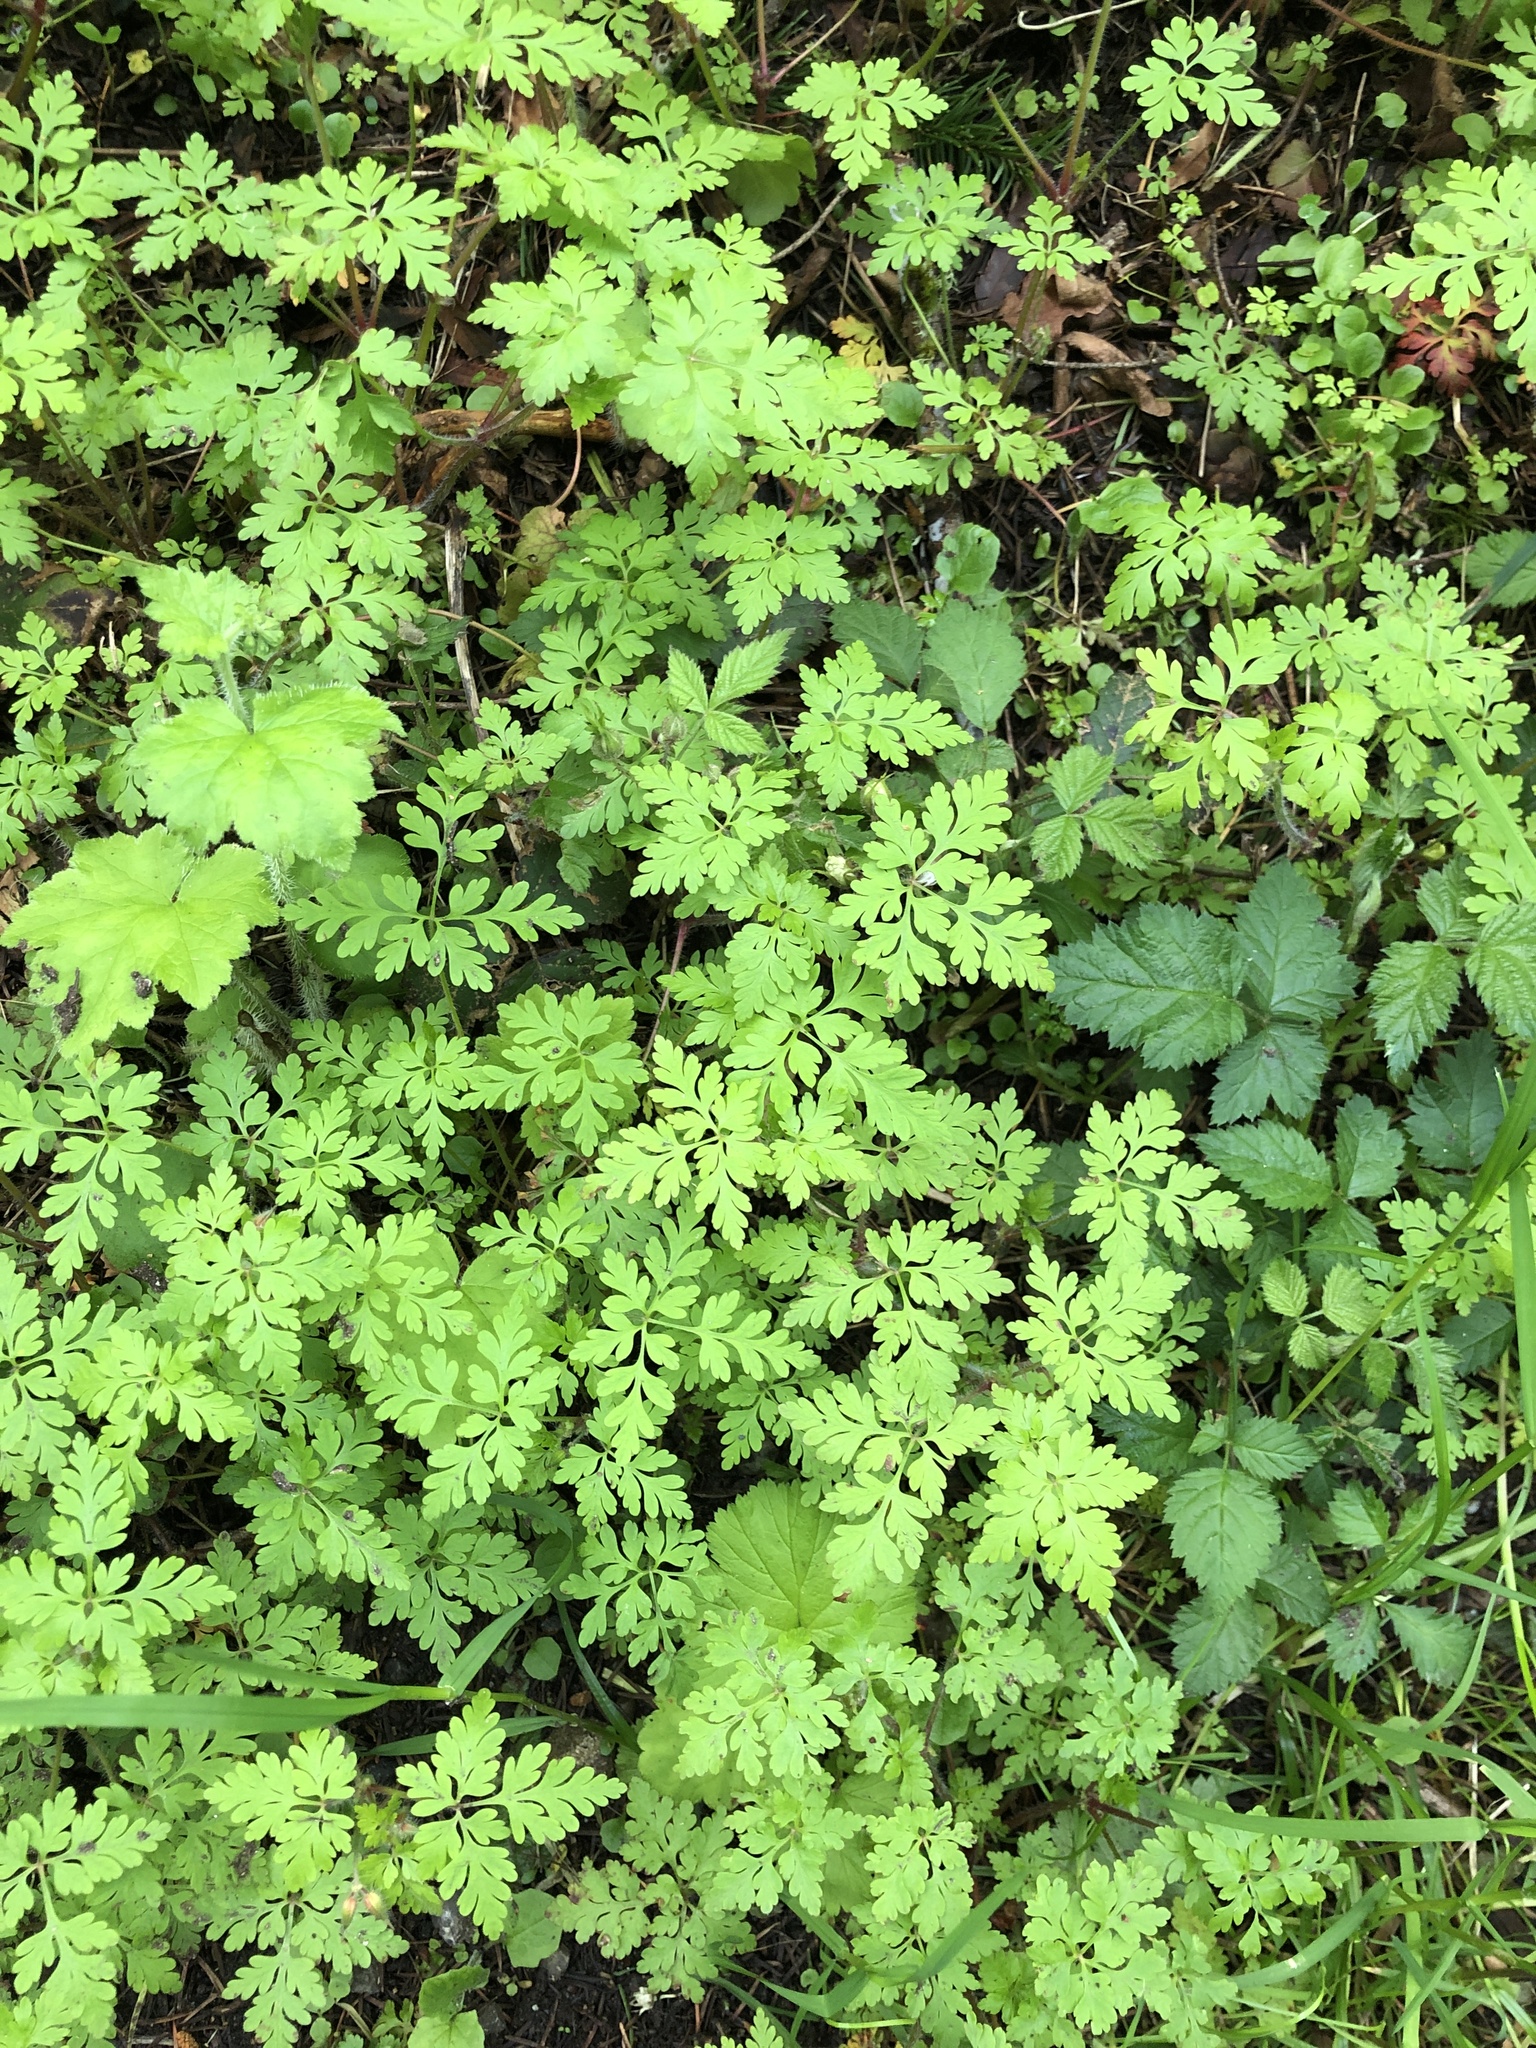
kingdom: Plantae
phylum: Tracheophyta
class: Magnoliopsida
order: Geraniales
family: Geraniaceae
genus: Geranium
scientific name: Geranium robertianum
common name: Herb-robert
